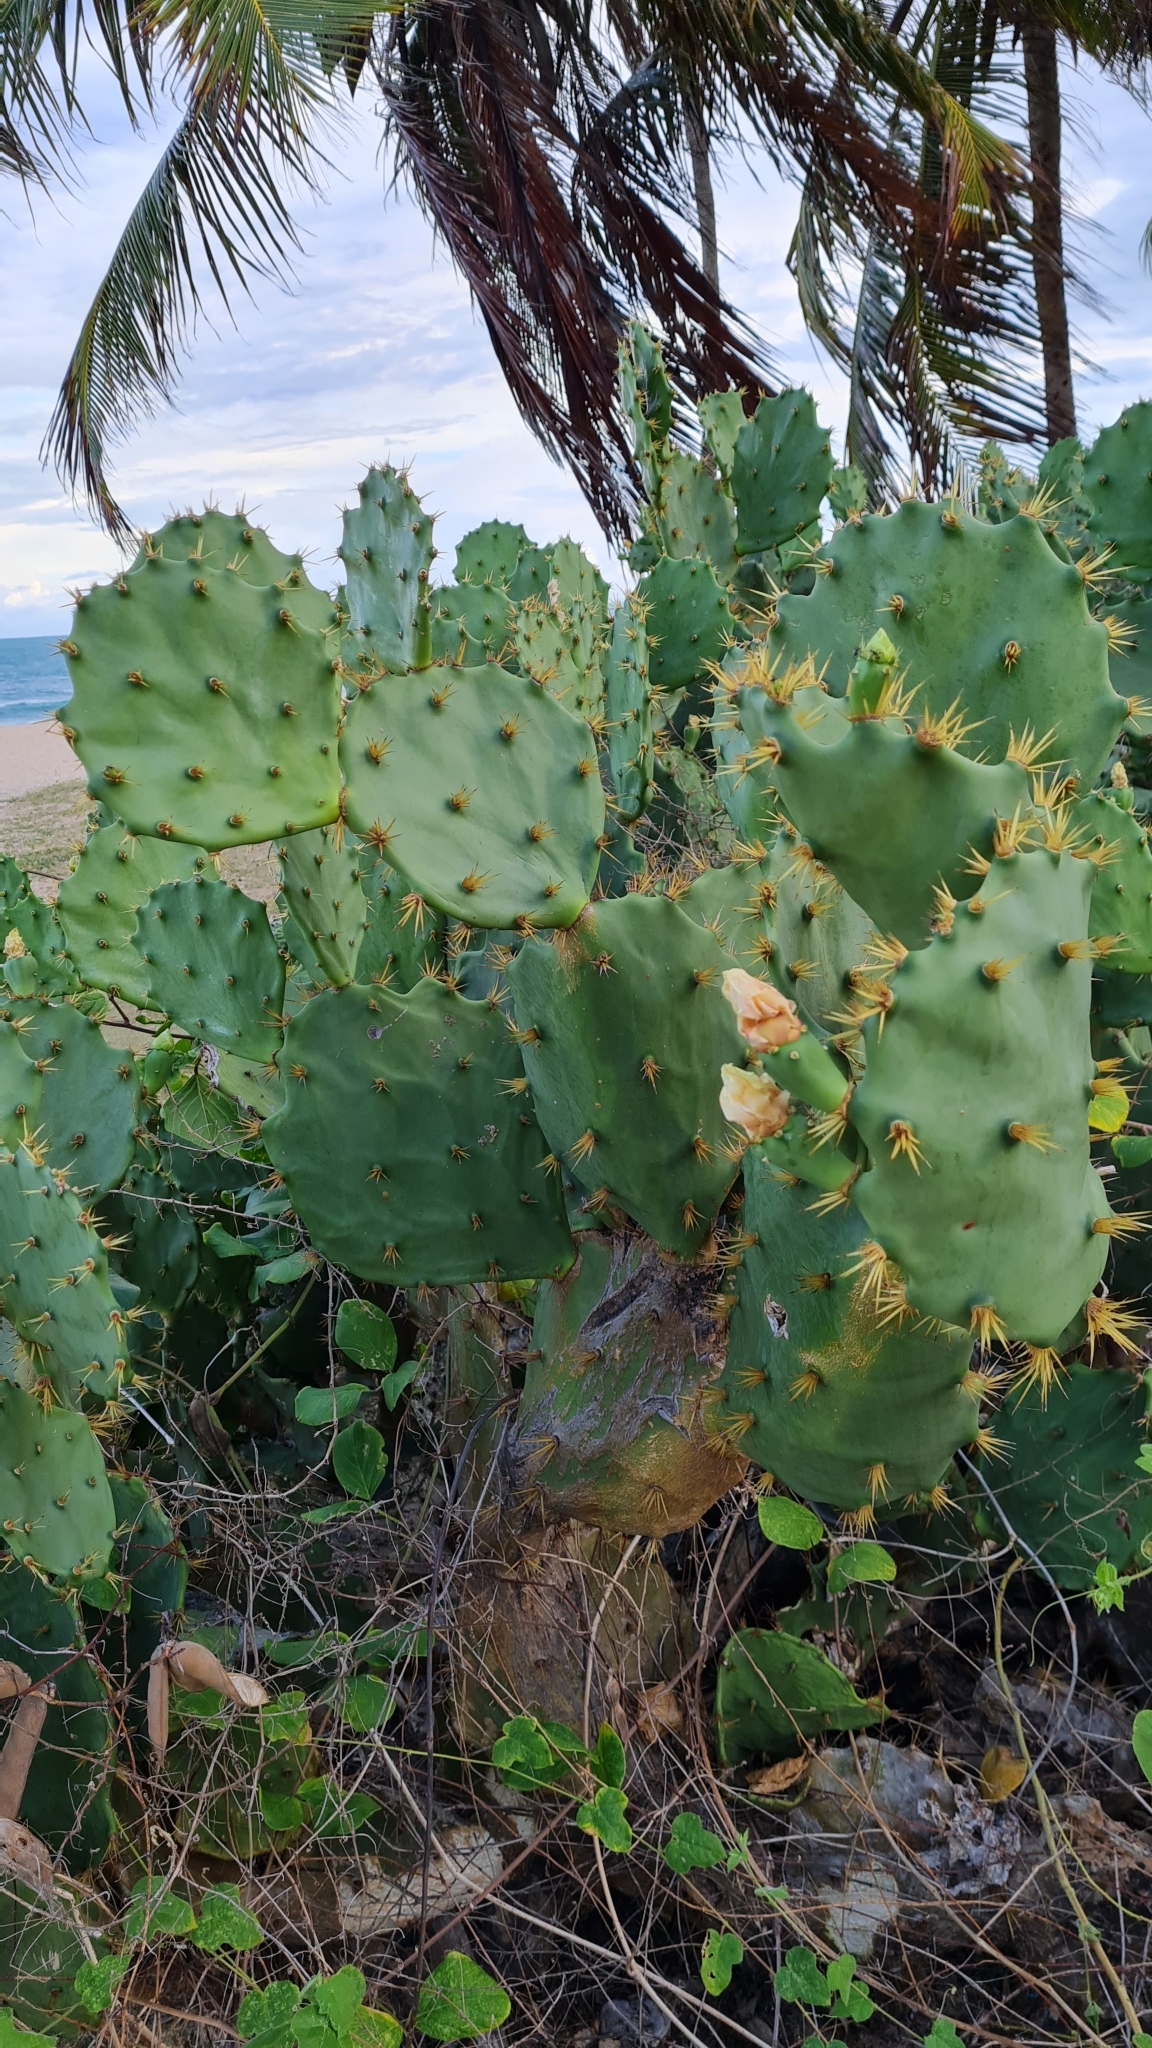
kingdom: Plantae
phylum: Tracheophyta
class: Magnoliopsida
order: Caryophyllales
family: Cactaceae
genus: Opuntia
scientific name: Opuntia dillenii
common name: Sour prickle
